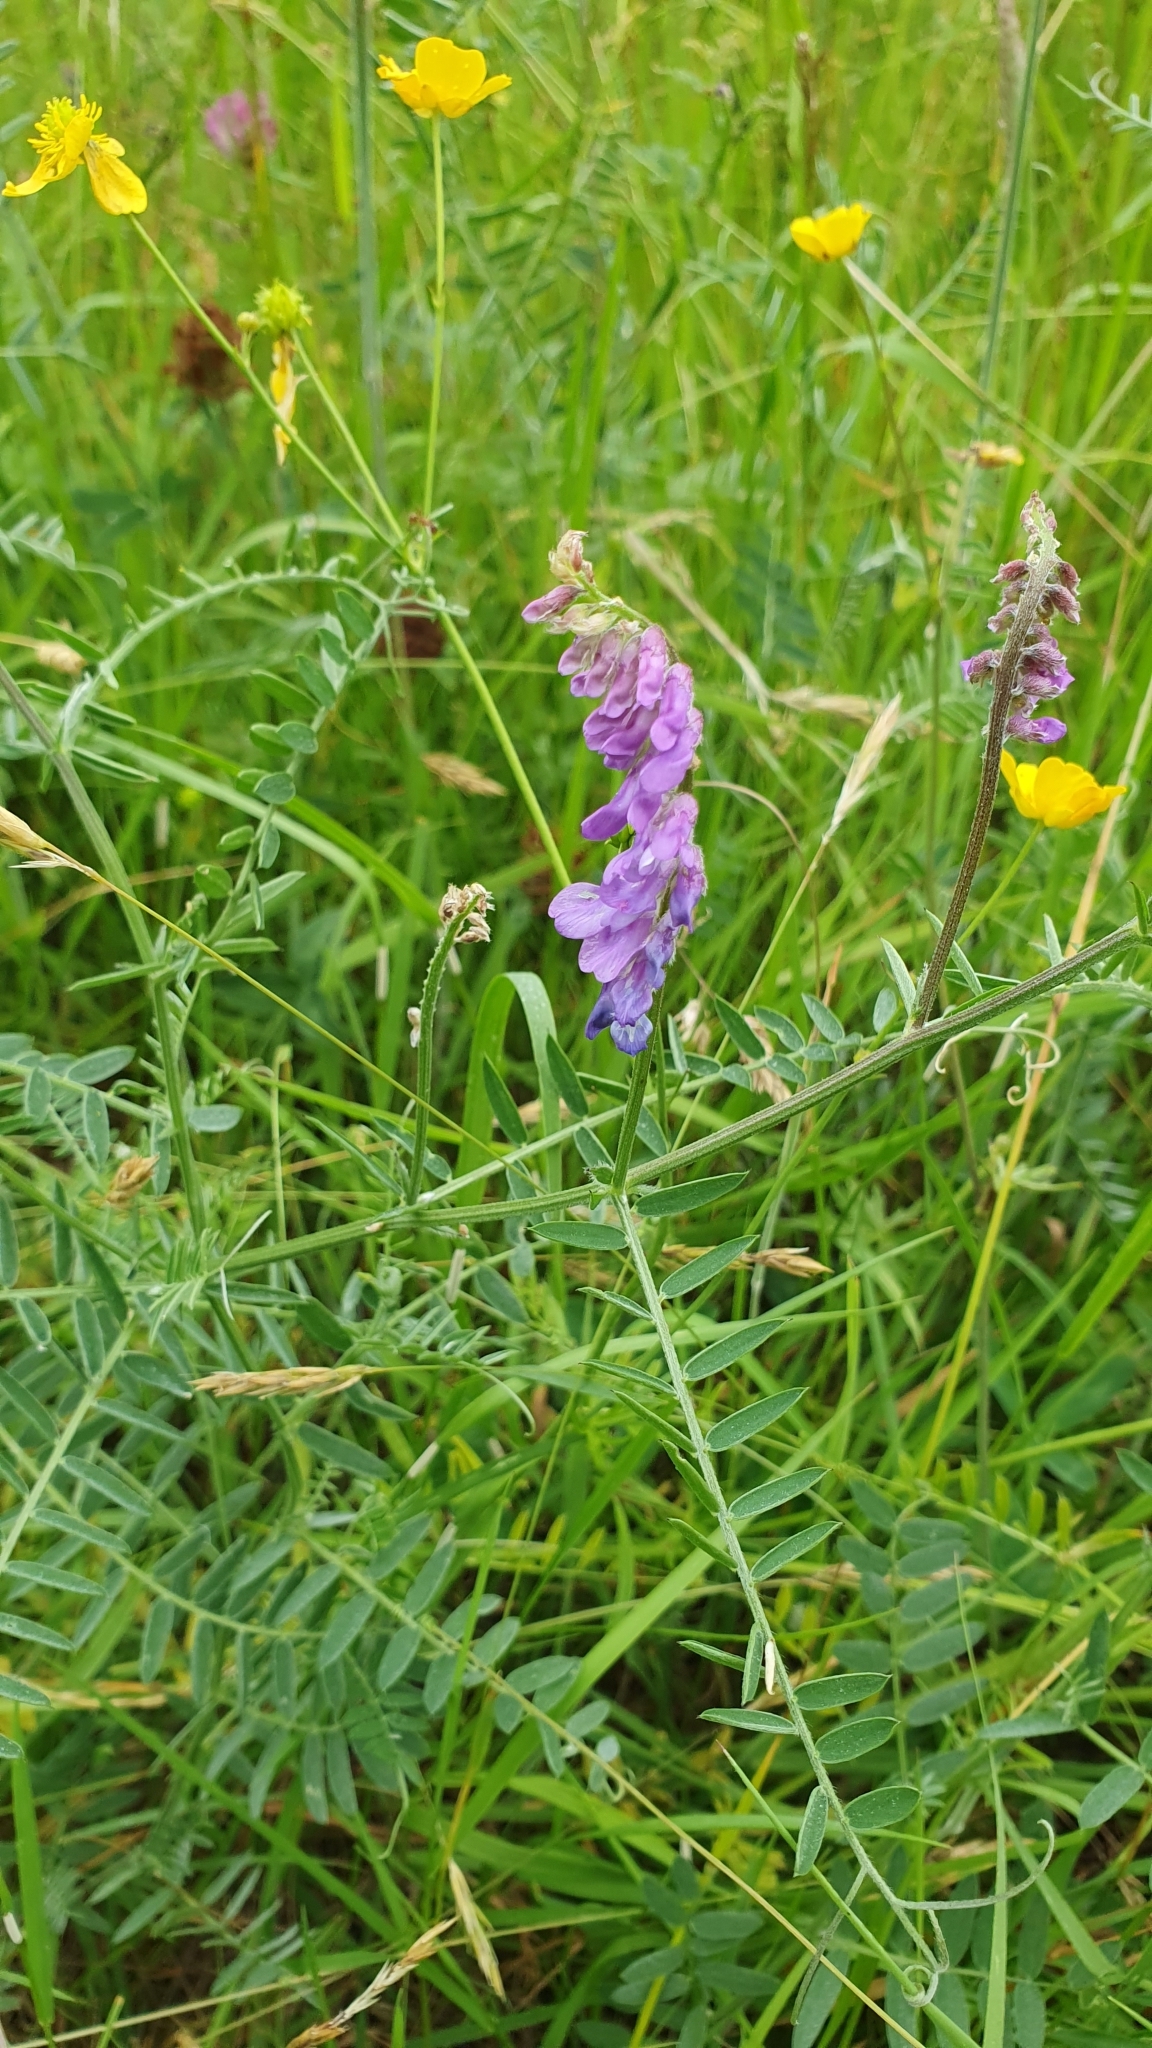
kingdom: Plantae
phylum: Tracheophyta
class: Magnoliopsida
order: Fabales
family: Fabaceae
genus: Vicia
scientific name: Vicia cracca
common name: Bird vetch
